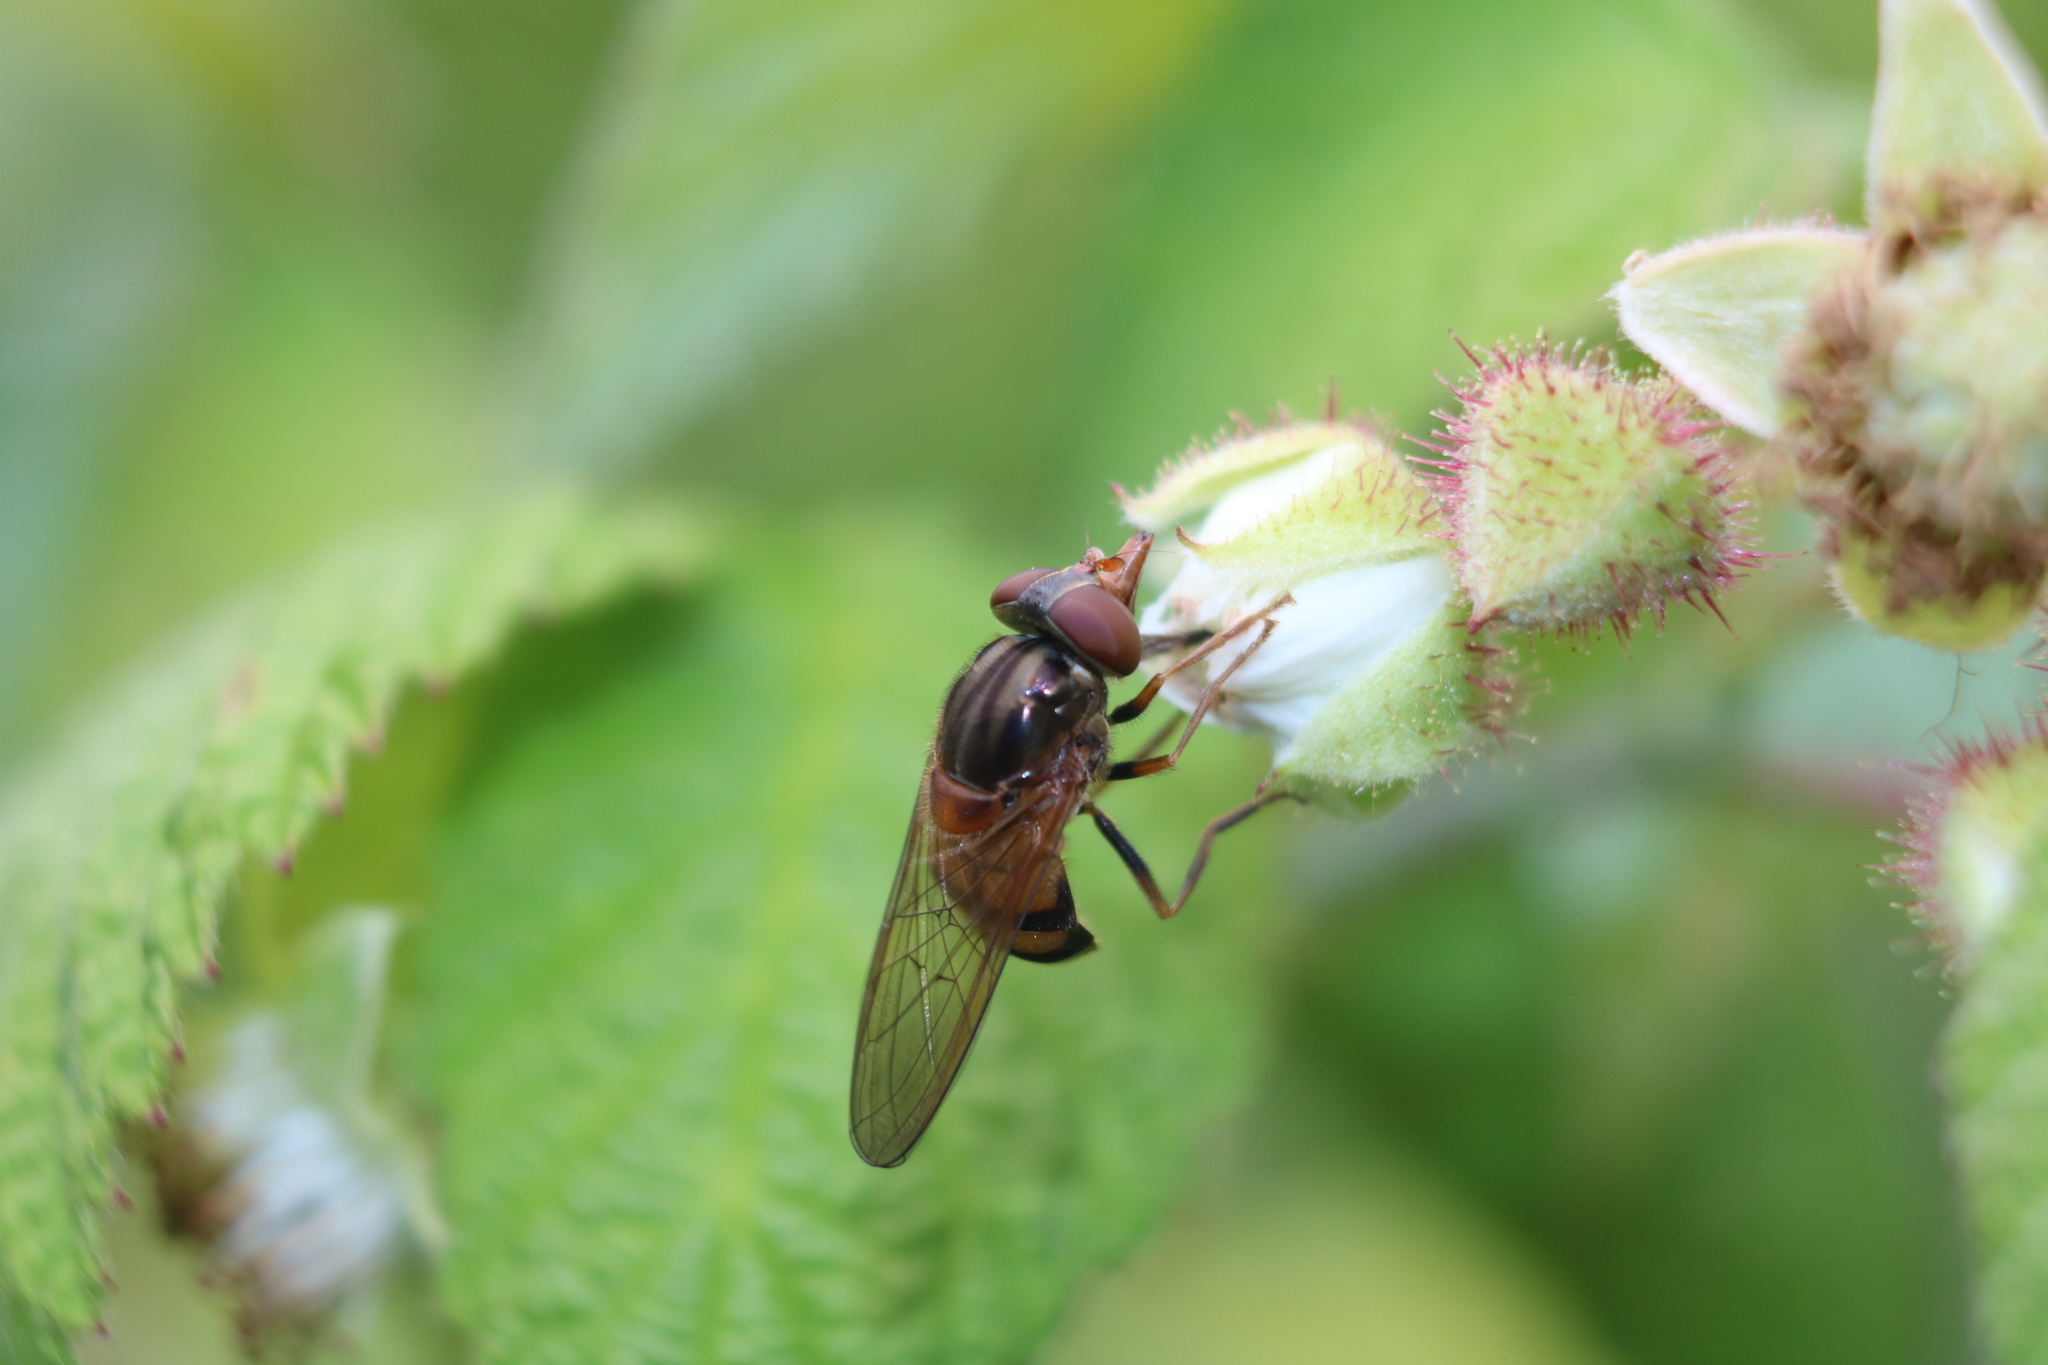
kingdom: Animalia
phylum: Arthropoda
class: Insecta
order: Diptera
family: Syrphidae
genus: Rhingia
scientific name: Rhingia nasica
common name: American snout fly
